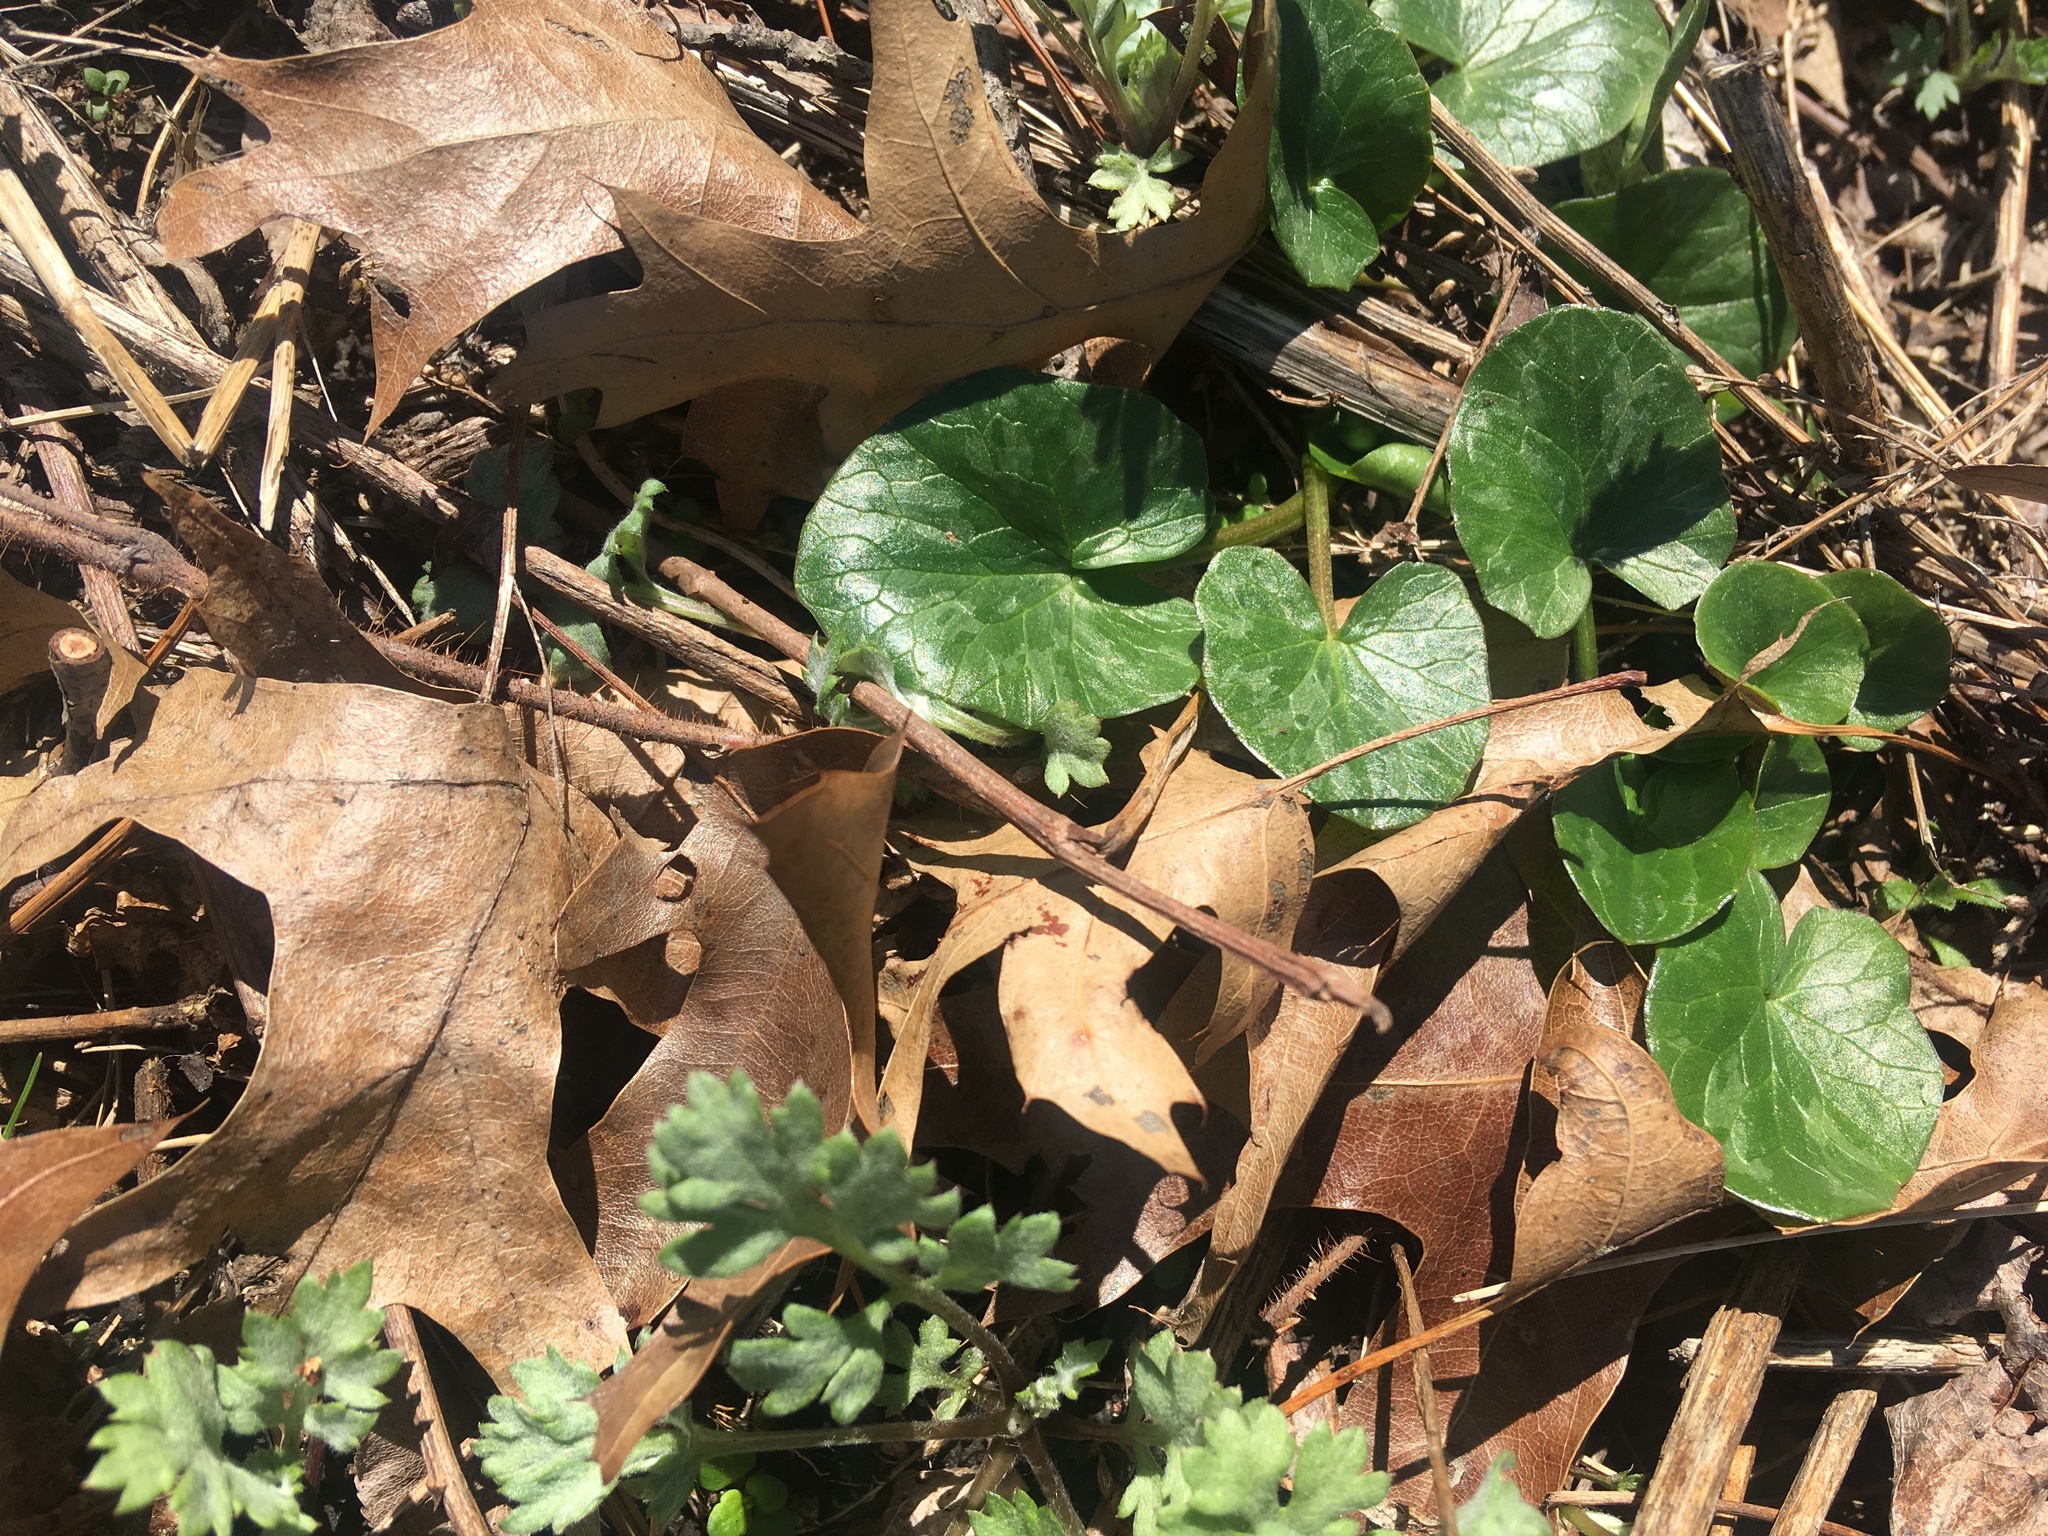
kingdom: Plantae
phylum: Tracheophyta
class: Magnoliopsida
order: Ranunculales
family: Ranunculaceae
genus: Ficaria
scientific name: Ficaria verna
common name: Lesser celandine
